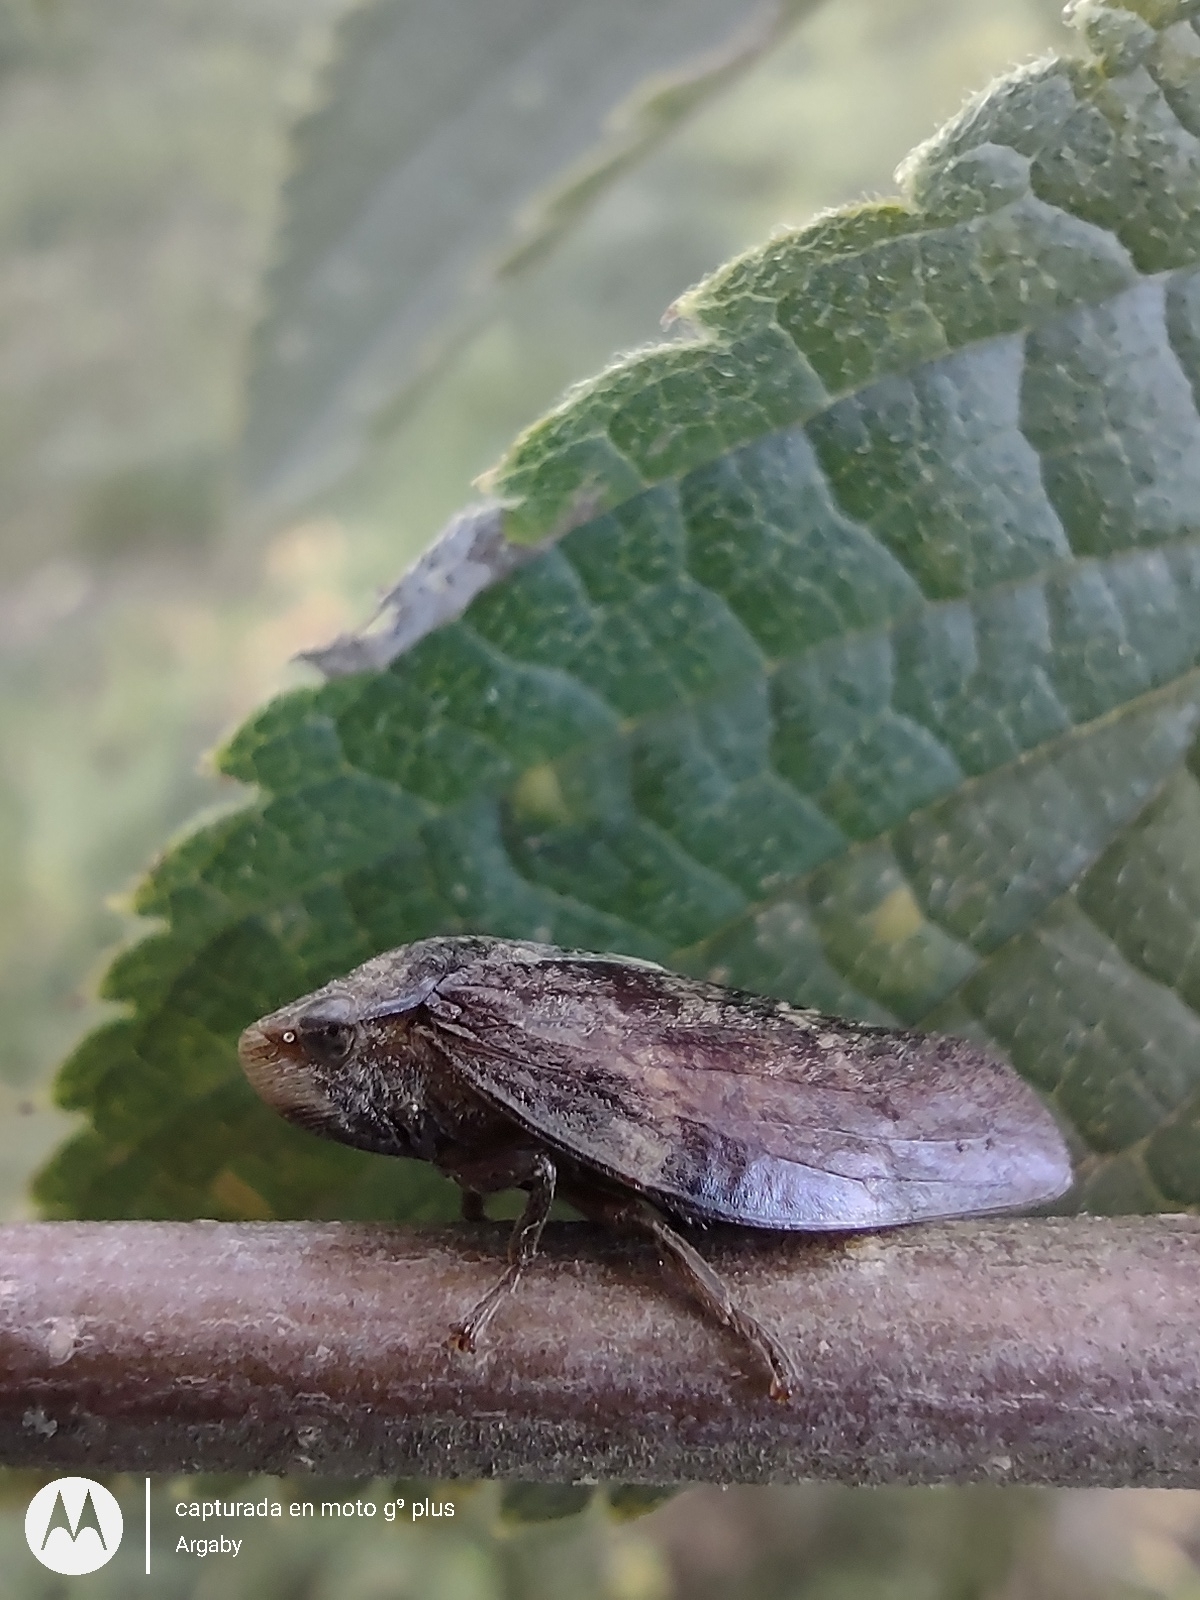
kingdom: Animalia
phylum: Arthropoda
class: Insecta
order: Hemiptera
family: Aphrophoridae
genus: Cephisus
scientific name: Cephisus siccifolius
